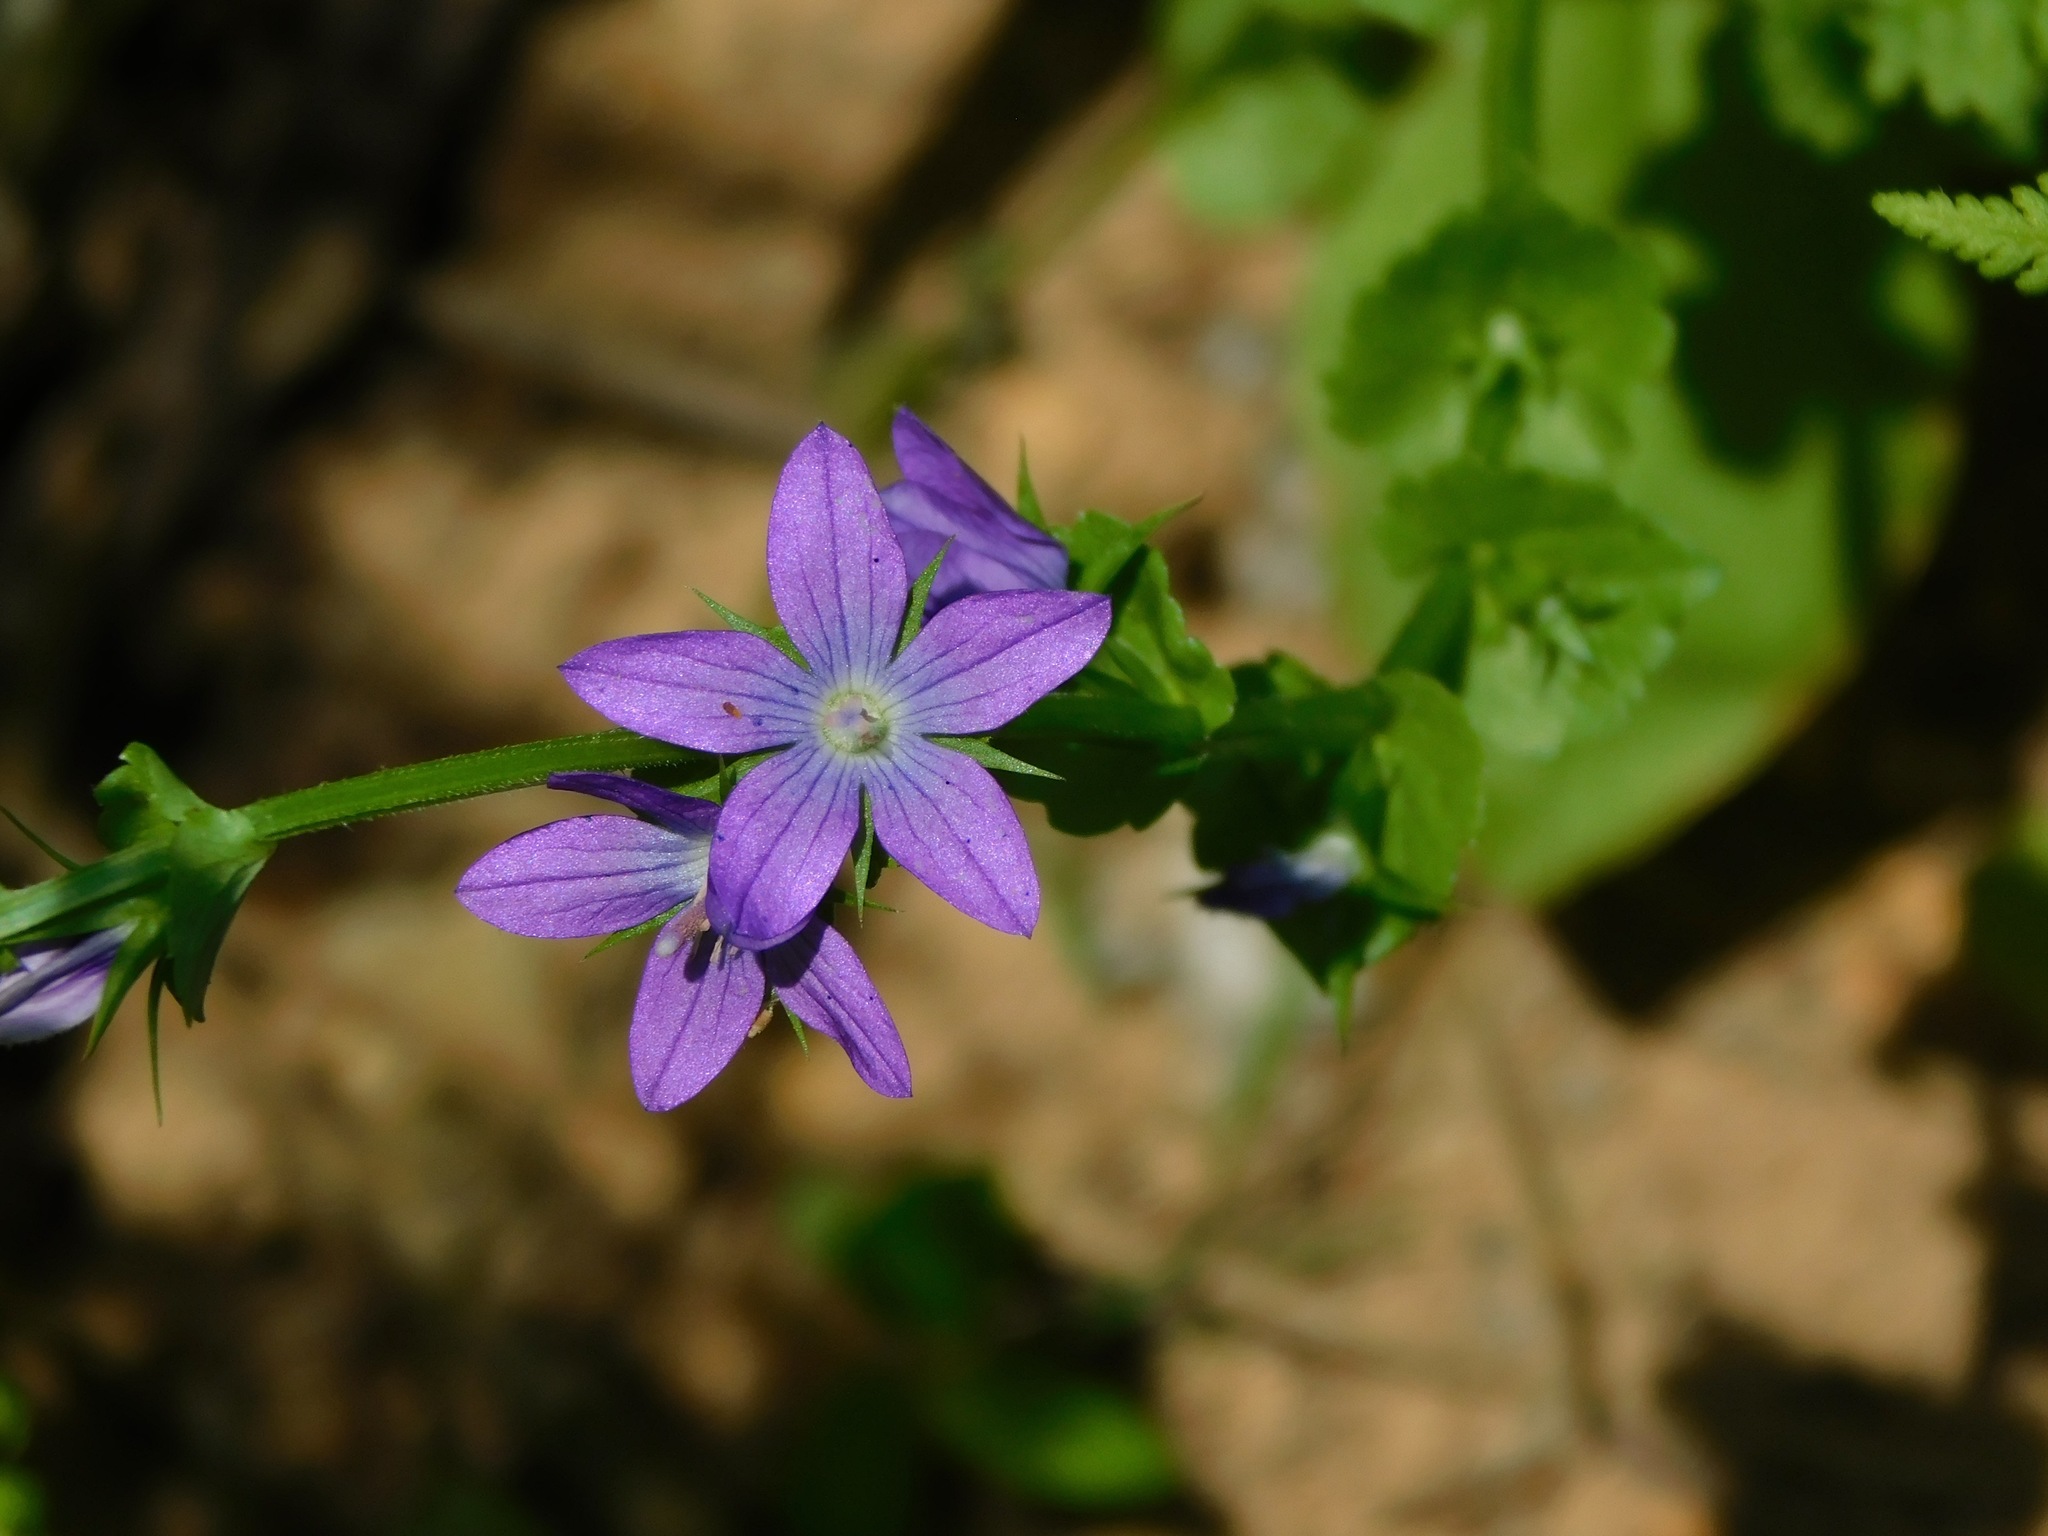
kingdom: Plantae
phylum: Tracheophyta
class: Magnoliopsida
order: Asterales
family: Campanulaceae
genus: Triodanis
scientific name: Triodanis perfoliata
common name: Clasping venus' looking-glass
